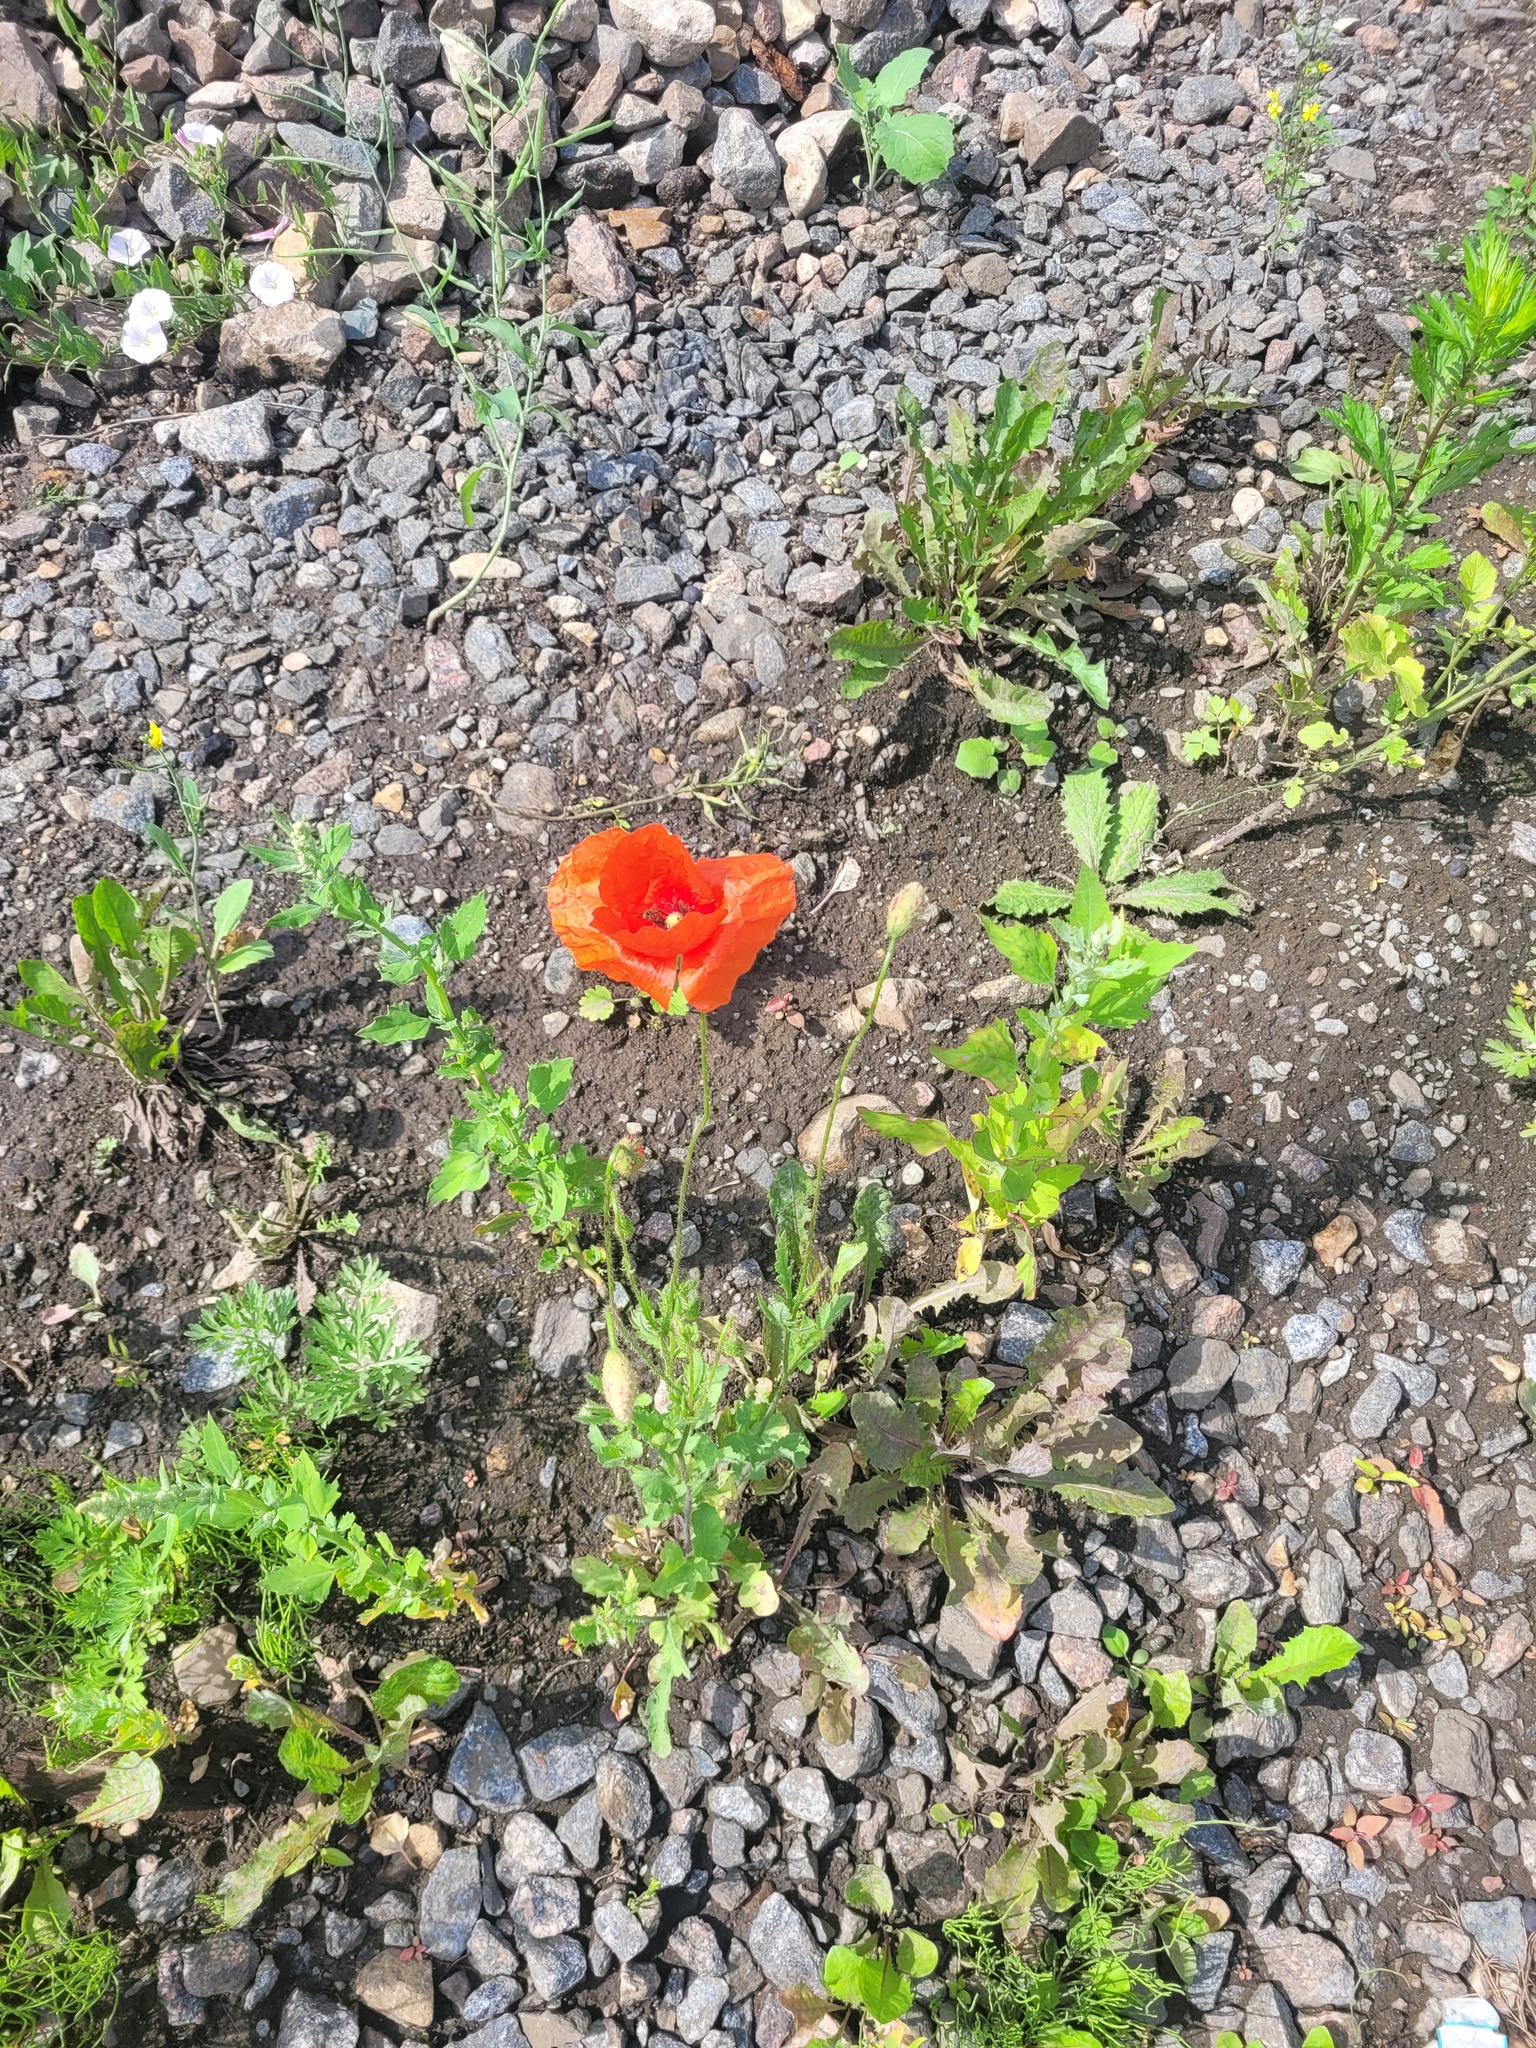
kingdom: Plantae
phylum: Tracheophyta
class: Magnoliopsida
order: Ranunculales
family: Papaveraceae
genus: Papaver
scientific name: Papaver rhoeas
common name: Corn poppy
